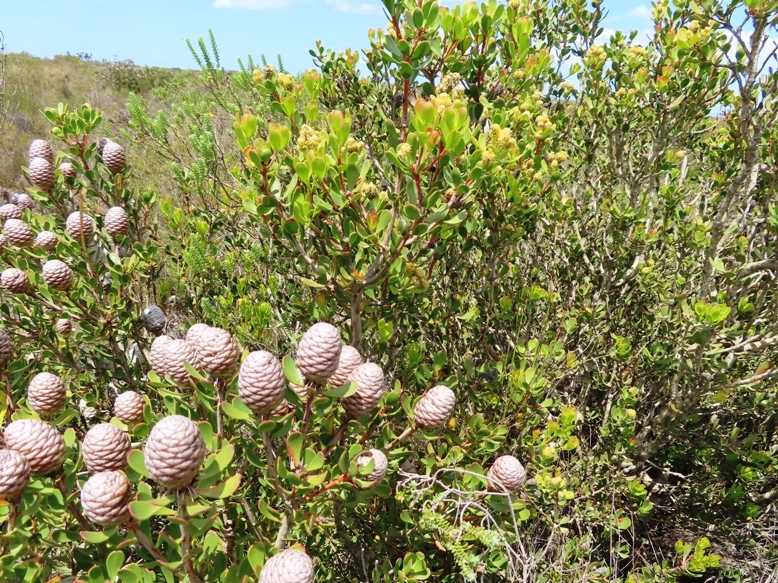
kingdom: Plantae
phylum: Tracheophyta
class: Magnoliopsida
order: Proteales
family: Proteaceae
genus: Leucadendron
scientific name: Leucadendron muirii
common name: Silver-ball conebush
